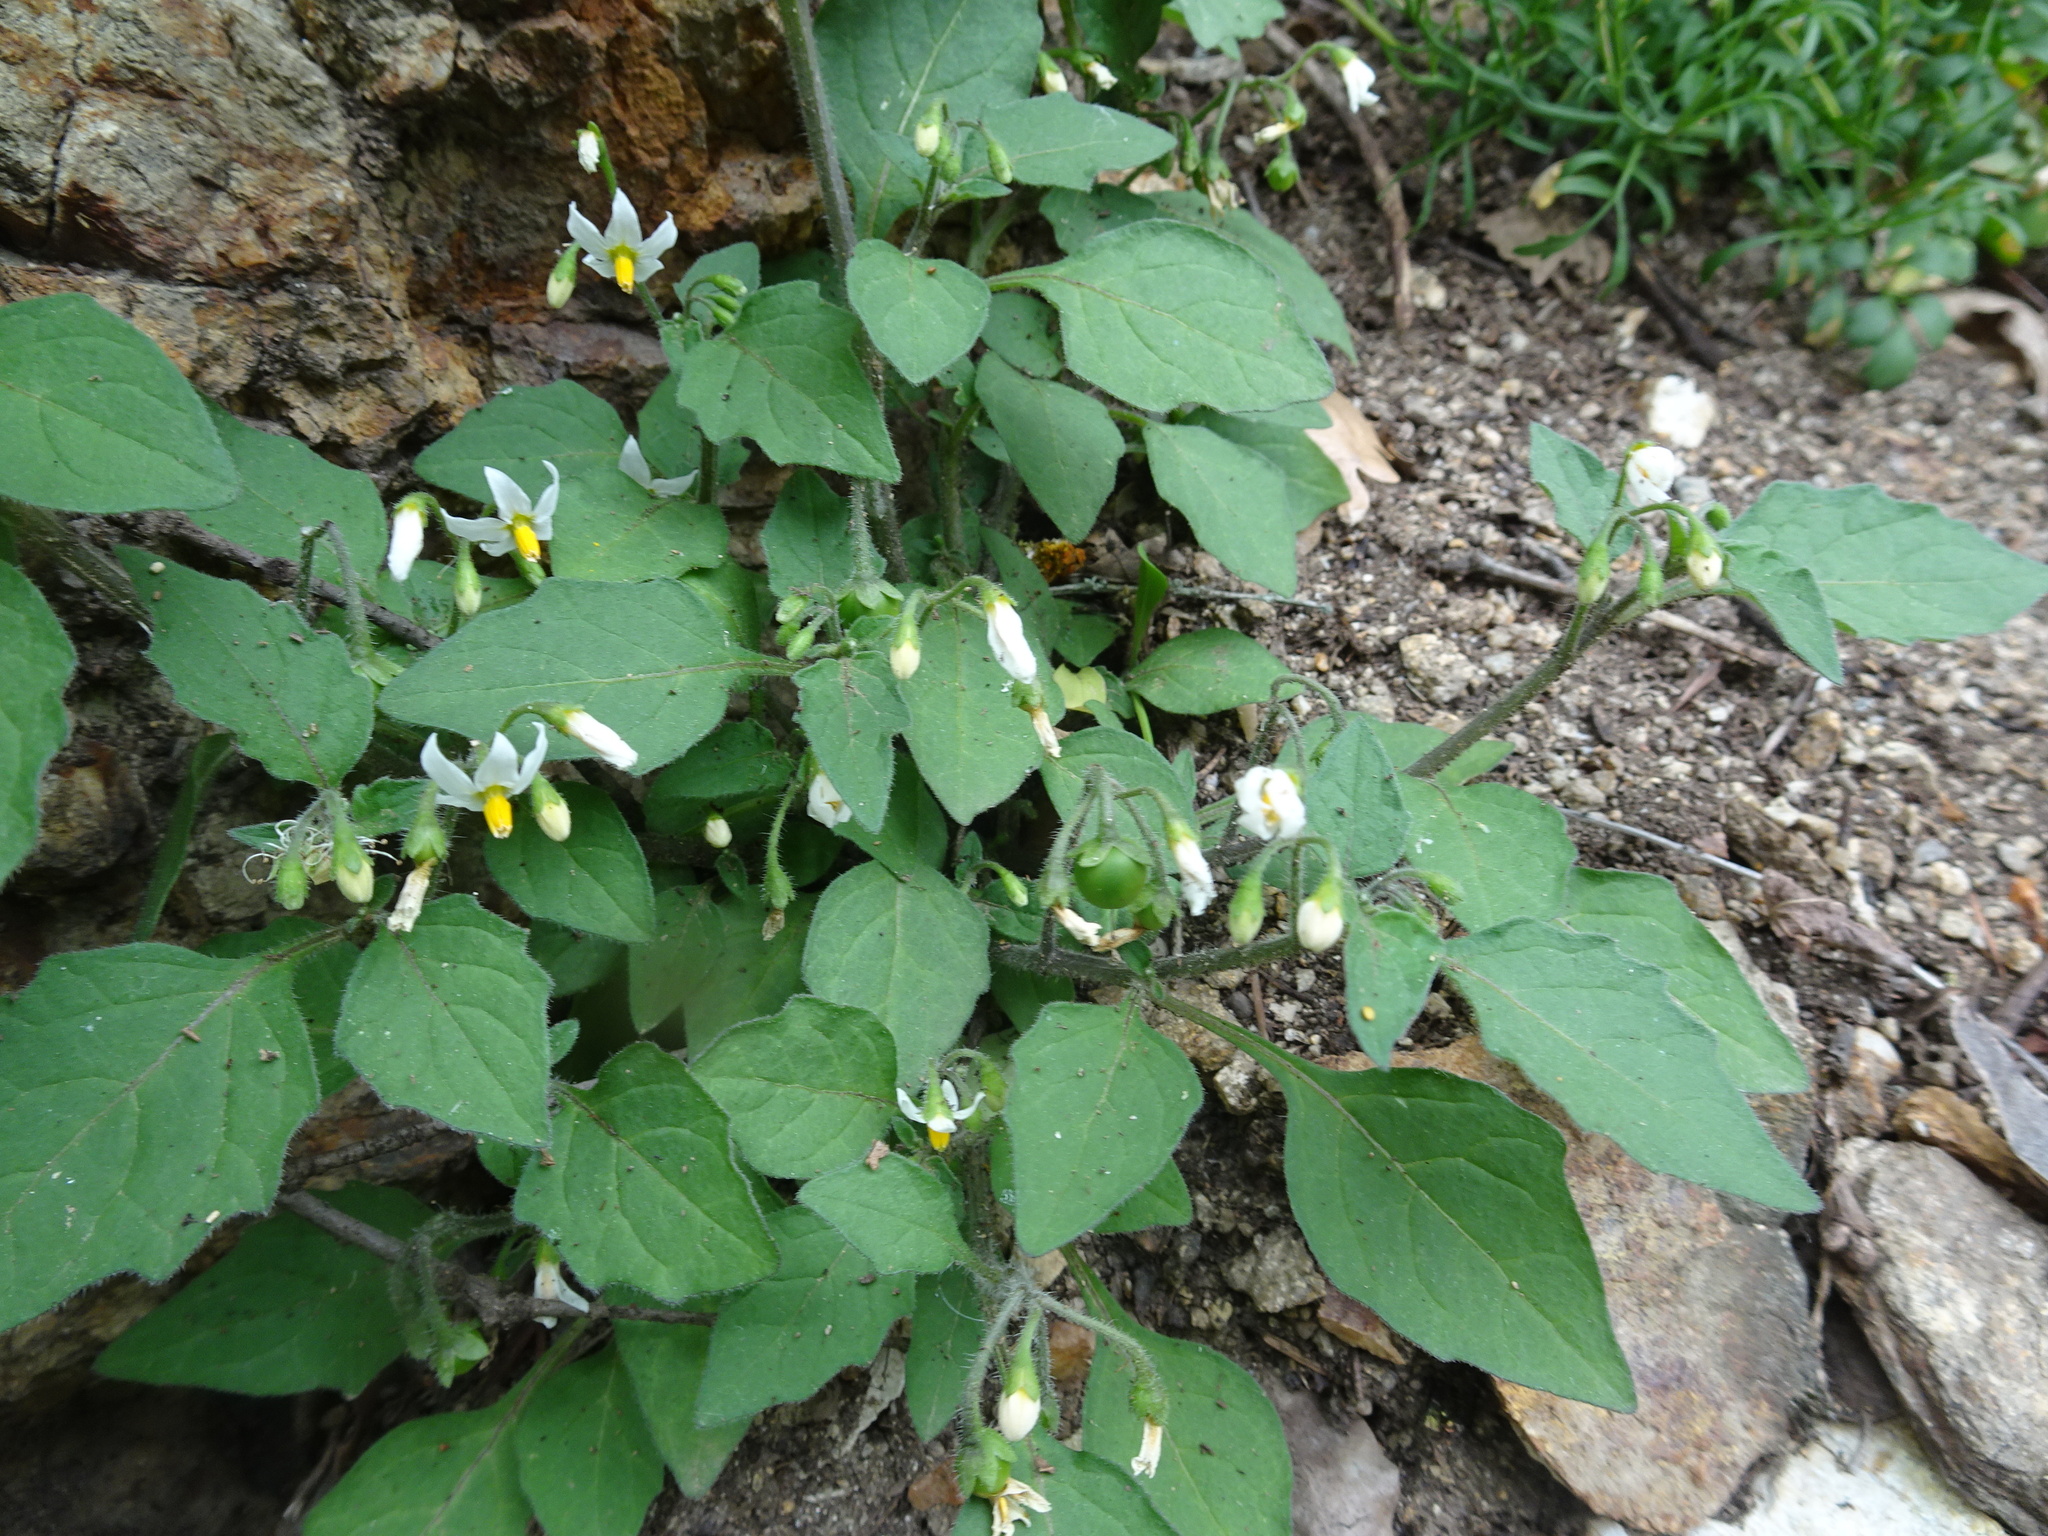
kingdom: Plantae
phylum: Tracheophyta
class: Magnoliopsida
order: Solanales
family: Solanaceae
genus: Solanum
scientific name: Solanum nigrum
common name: Black nightshade
